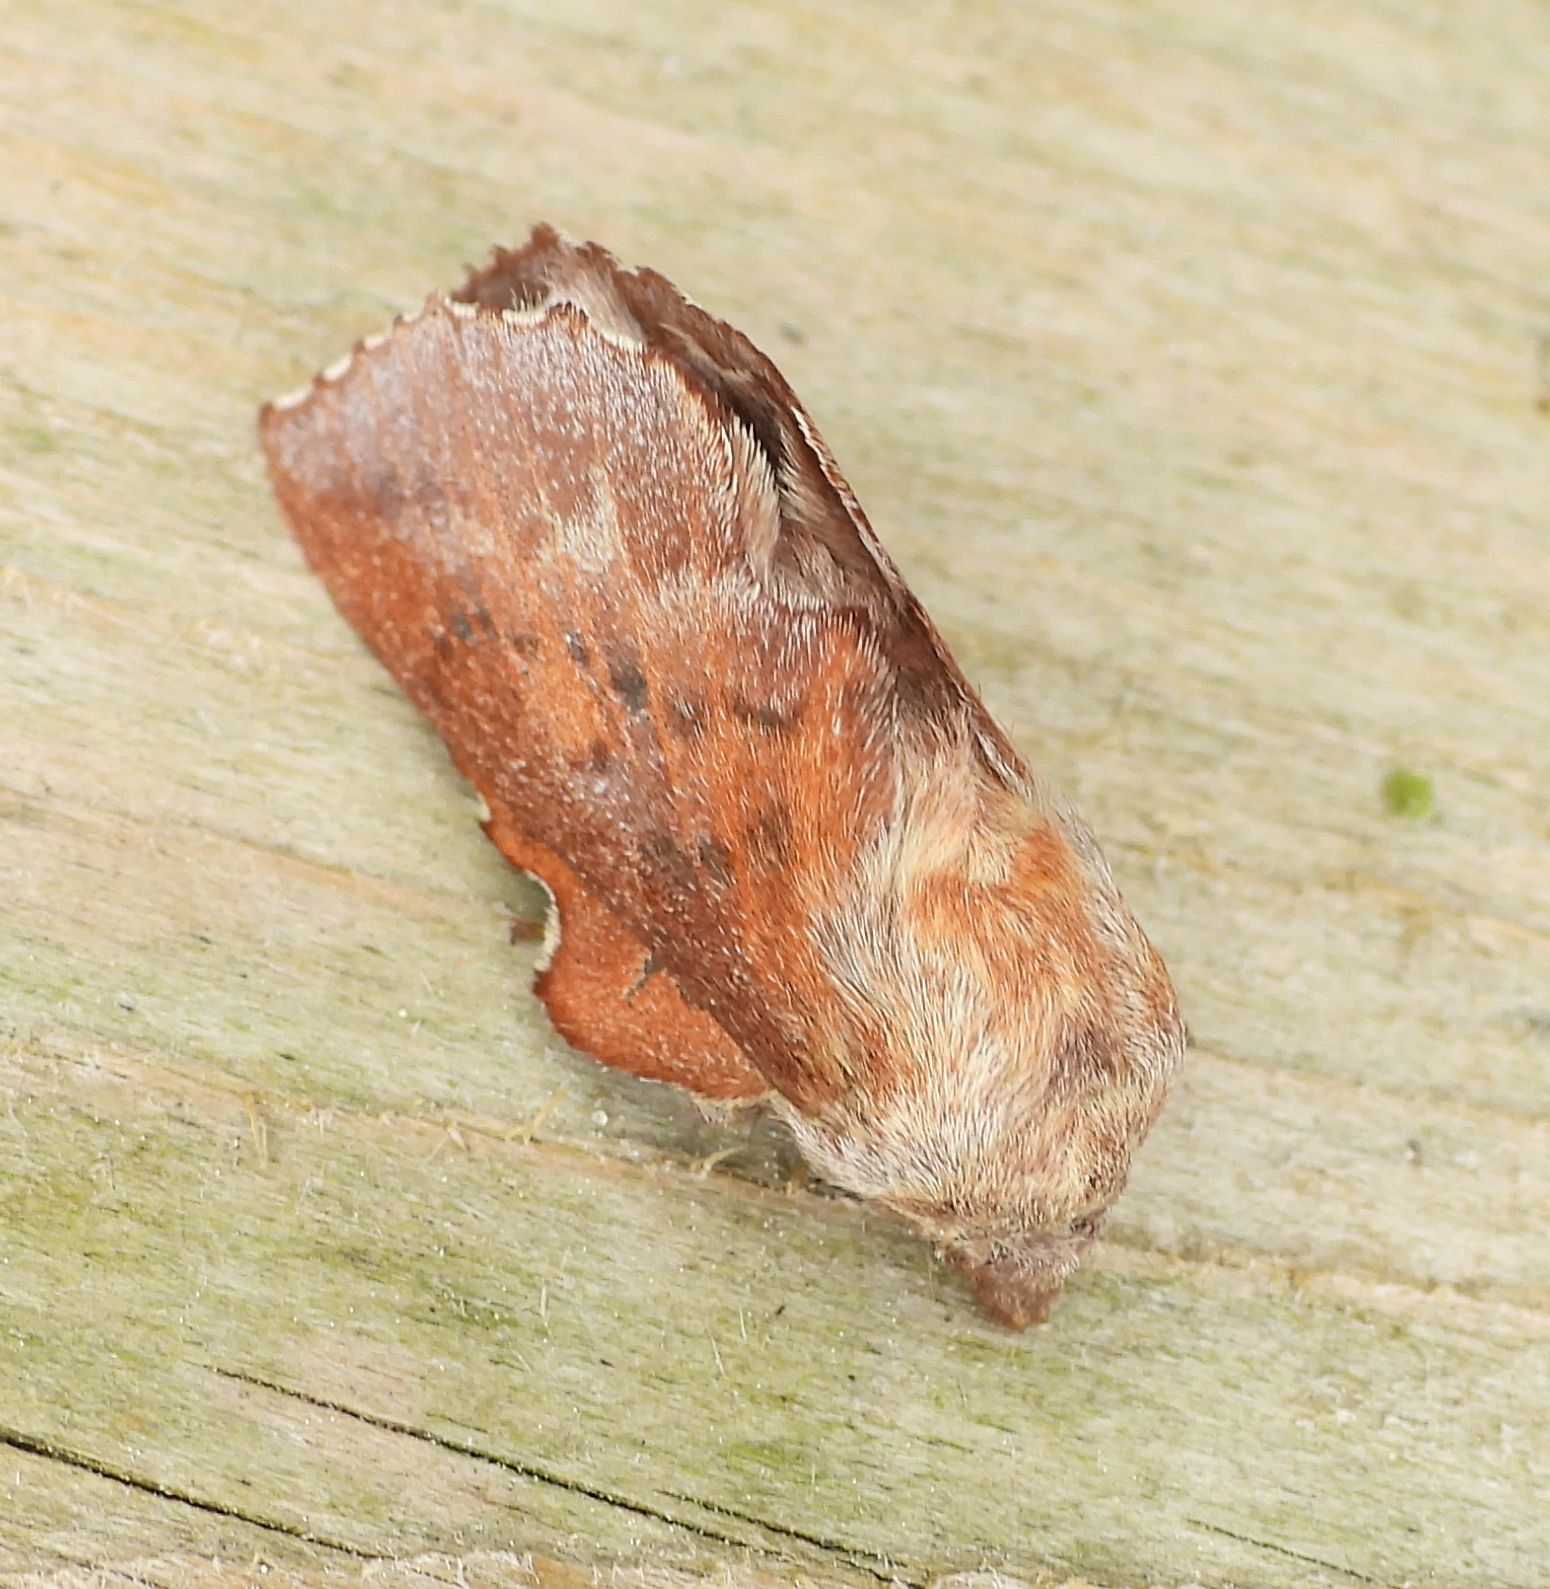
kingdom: Animalia
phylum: Arthropoda
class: Insecta
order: Lepidoptera
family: Lasiocampidae
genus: Phyllodesma
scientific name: Phyllodesma americana
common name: American lappet moth
